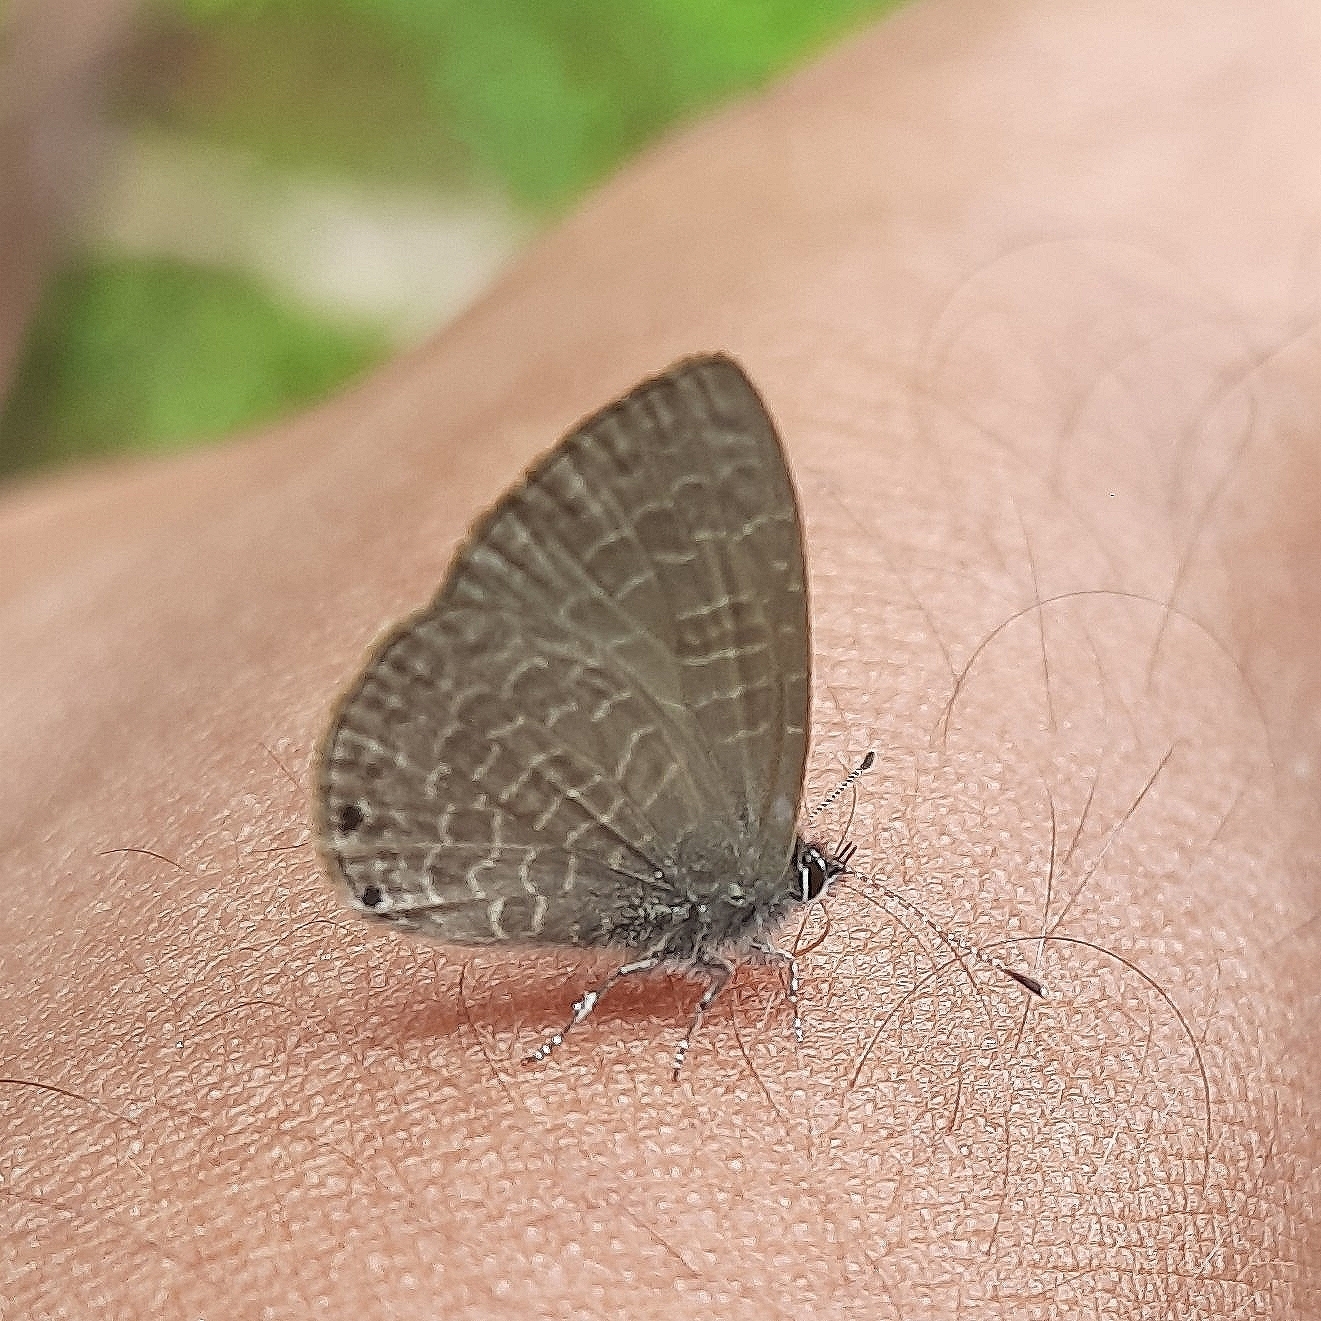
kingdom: Animalia
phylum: Arthropoda
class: Insecta
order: Lepidoptera
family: Lycaenidae
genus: Petrelaea
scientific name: Petrelaea dana
